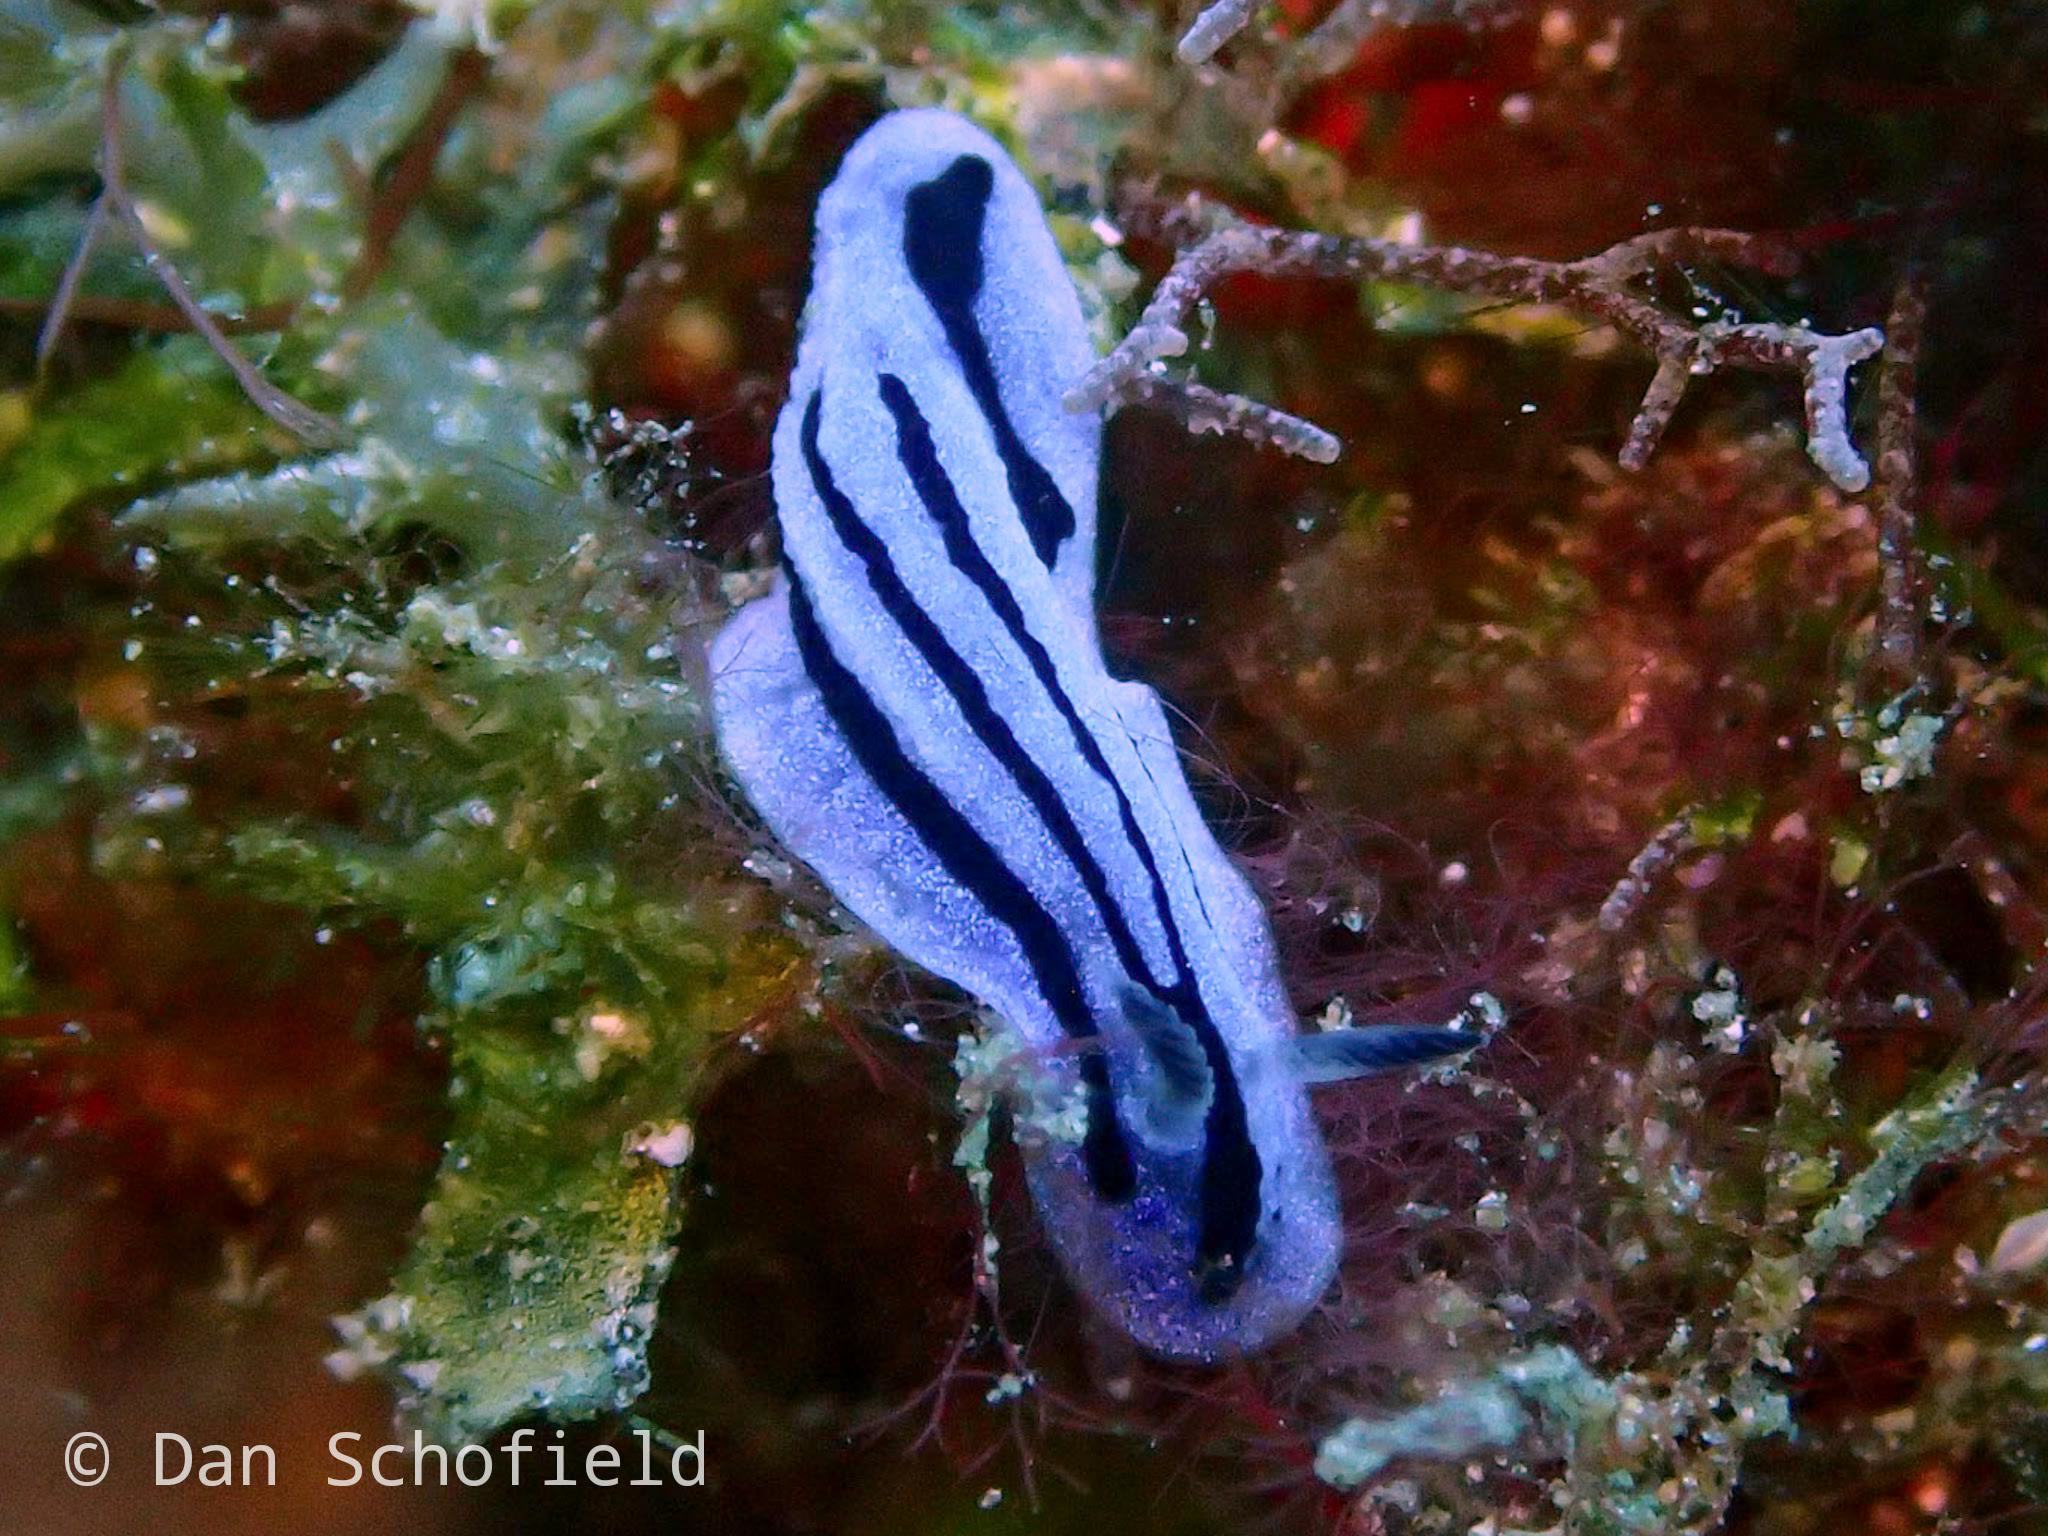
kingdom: Animalia
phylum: Mollusca
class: Gastropoda
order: Nudibranchia
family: Phyllidiidae
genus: Phyllidiopsis
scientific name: Phyllidiopsis annae
